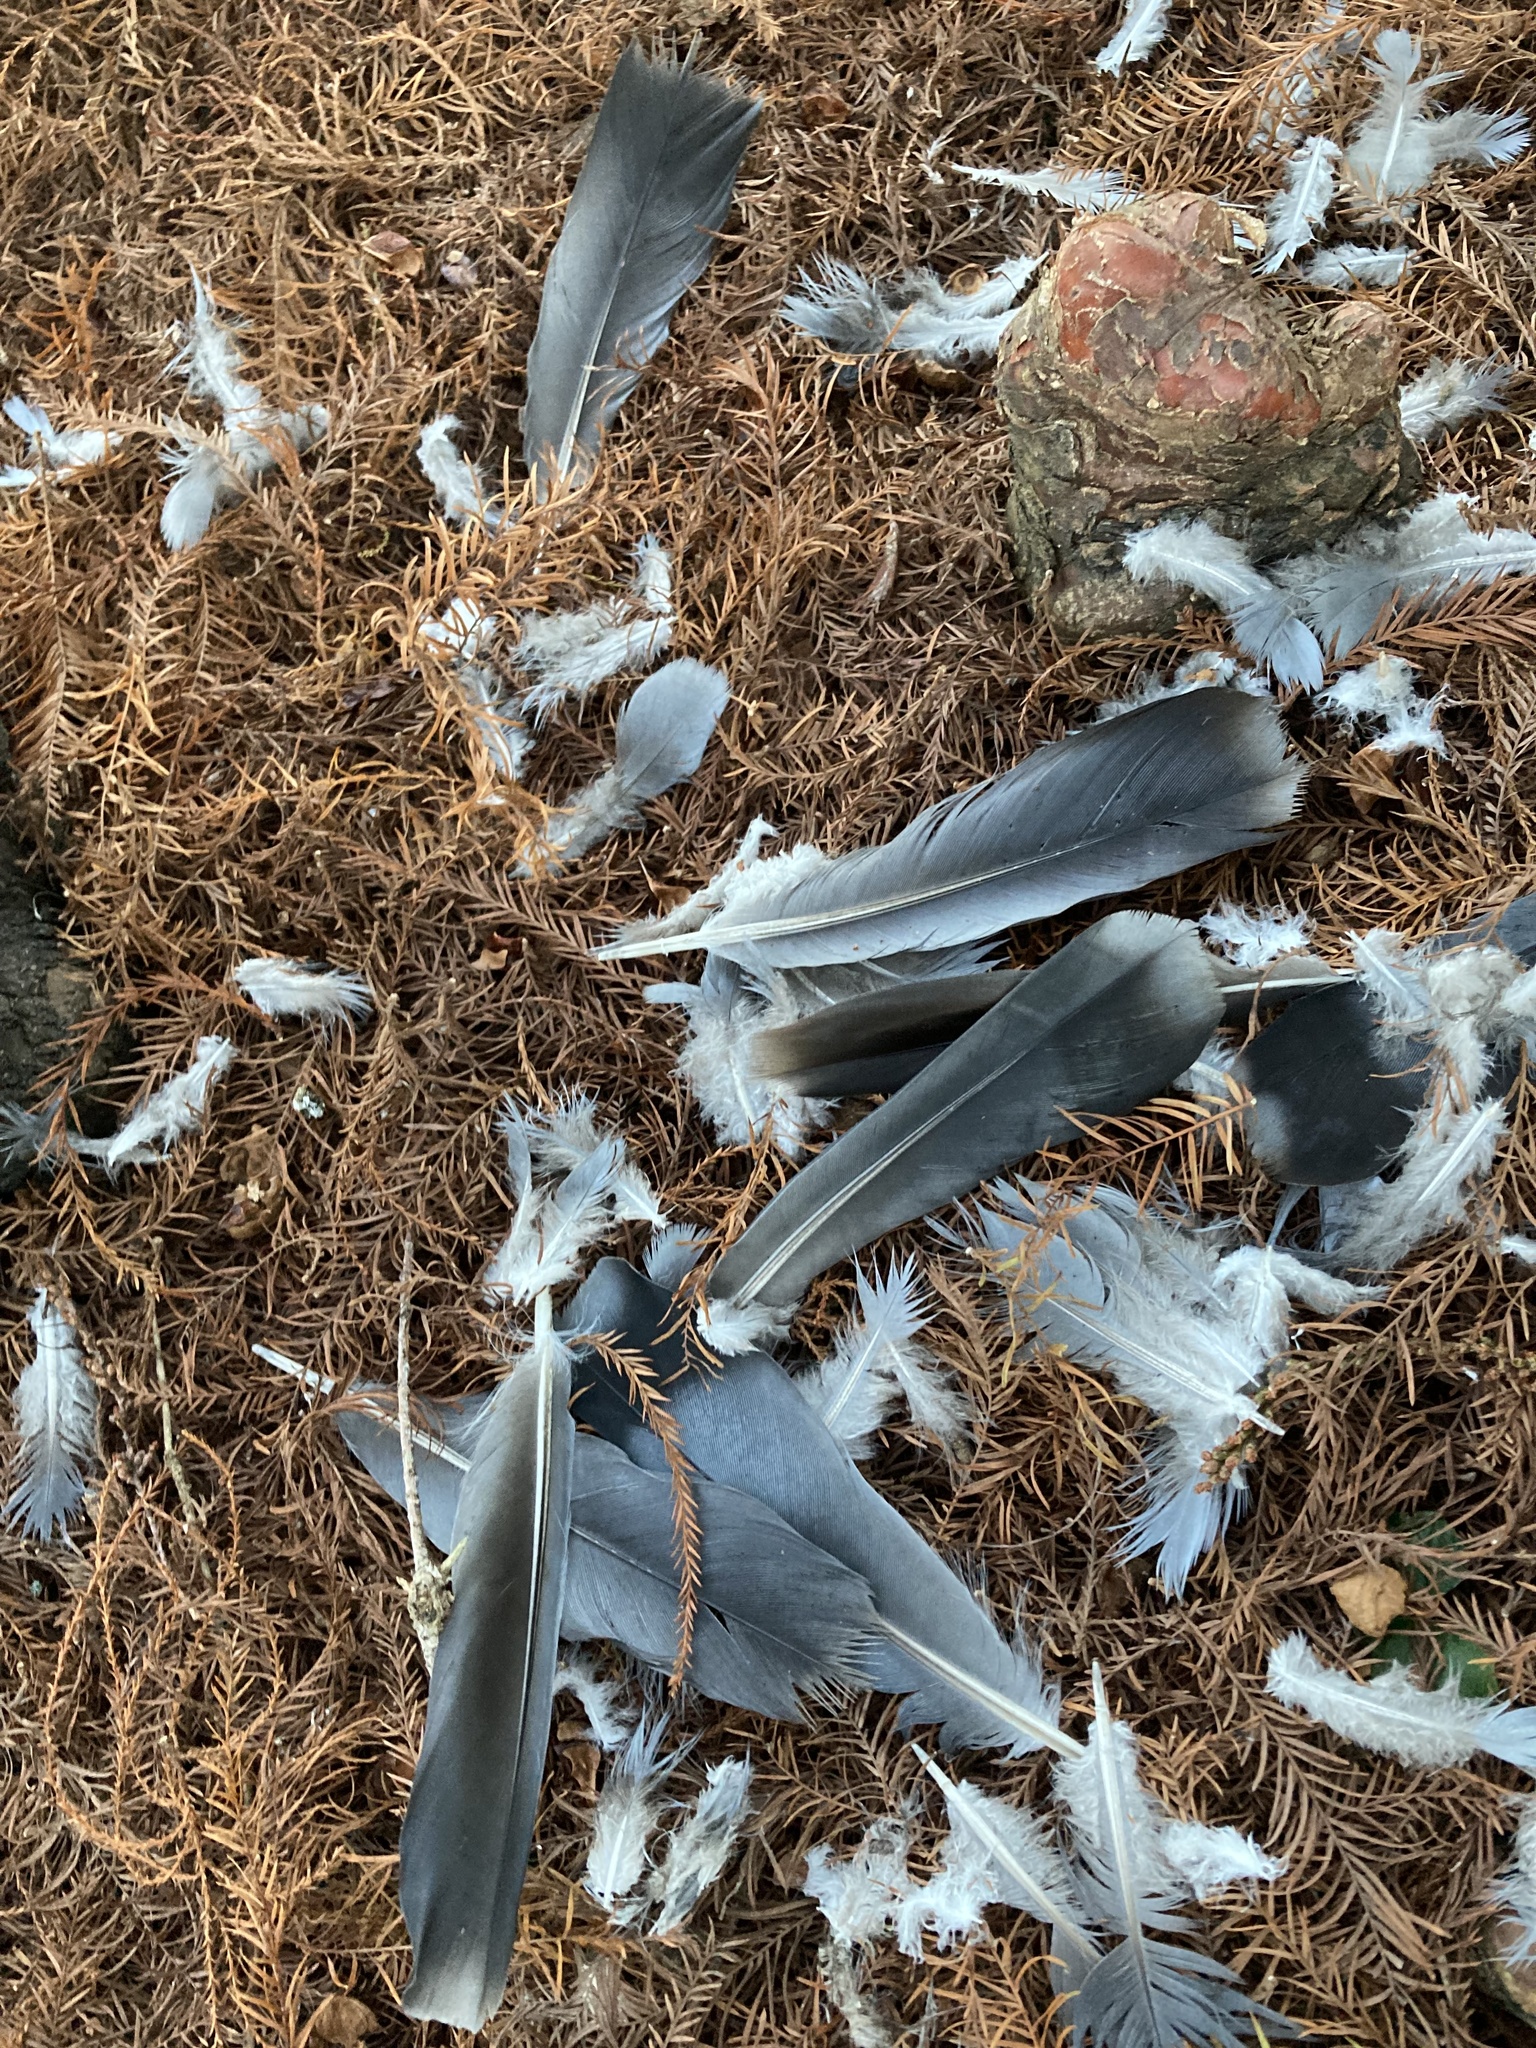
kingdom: Animalia
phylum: Chordata
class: Aves
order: Columbiformes
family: Columbidae
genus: Columba
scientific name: Columba livia
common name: Rock pigeon
